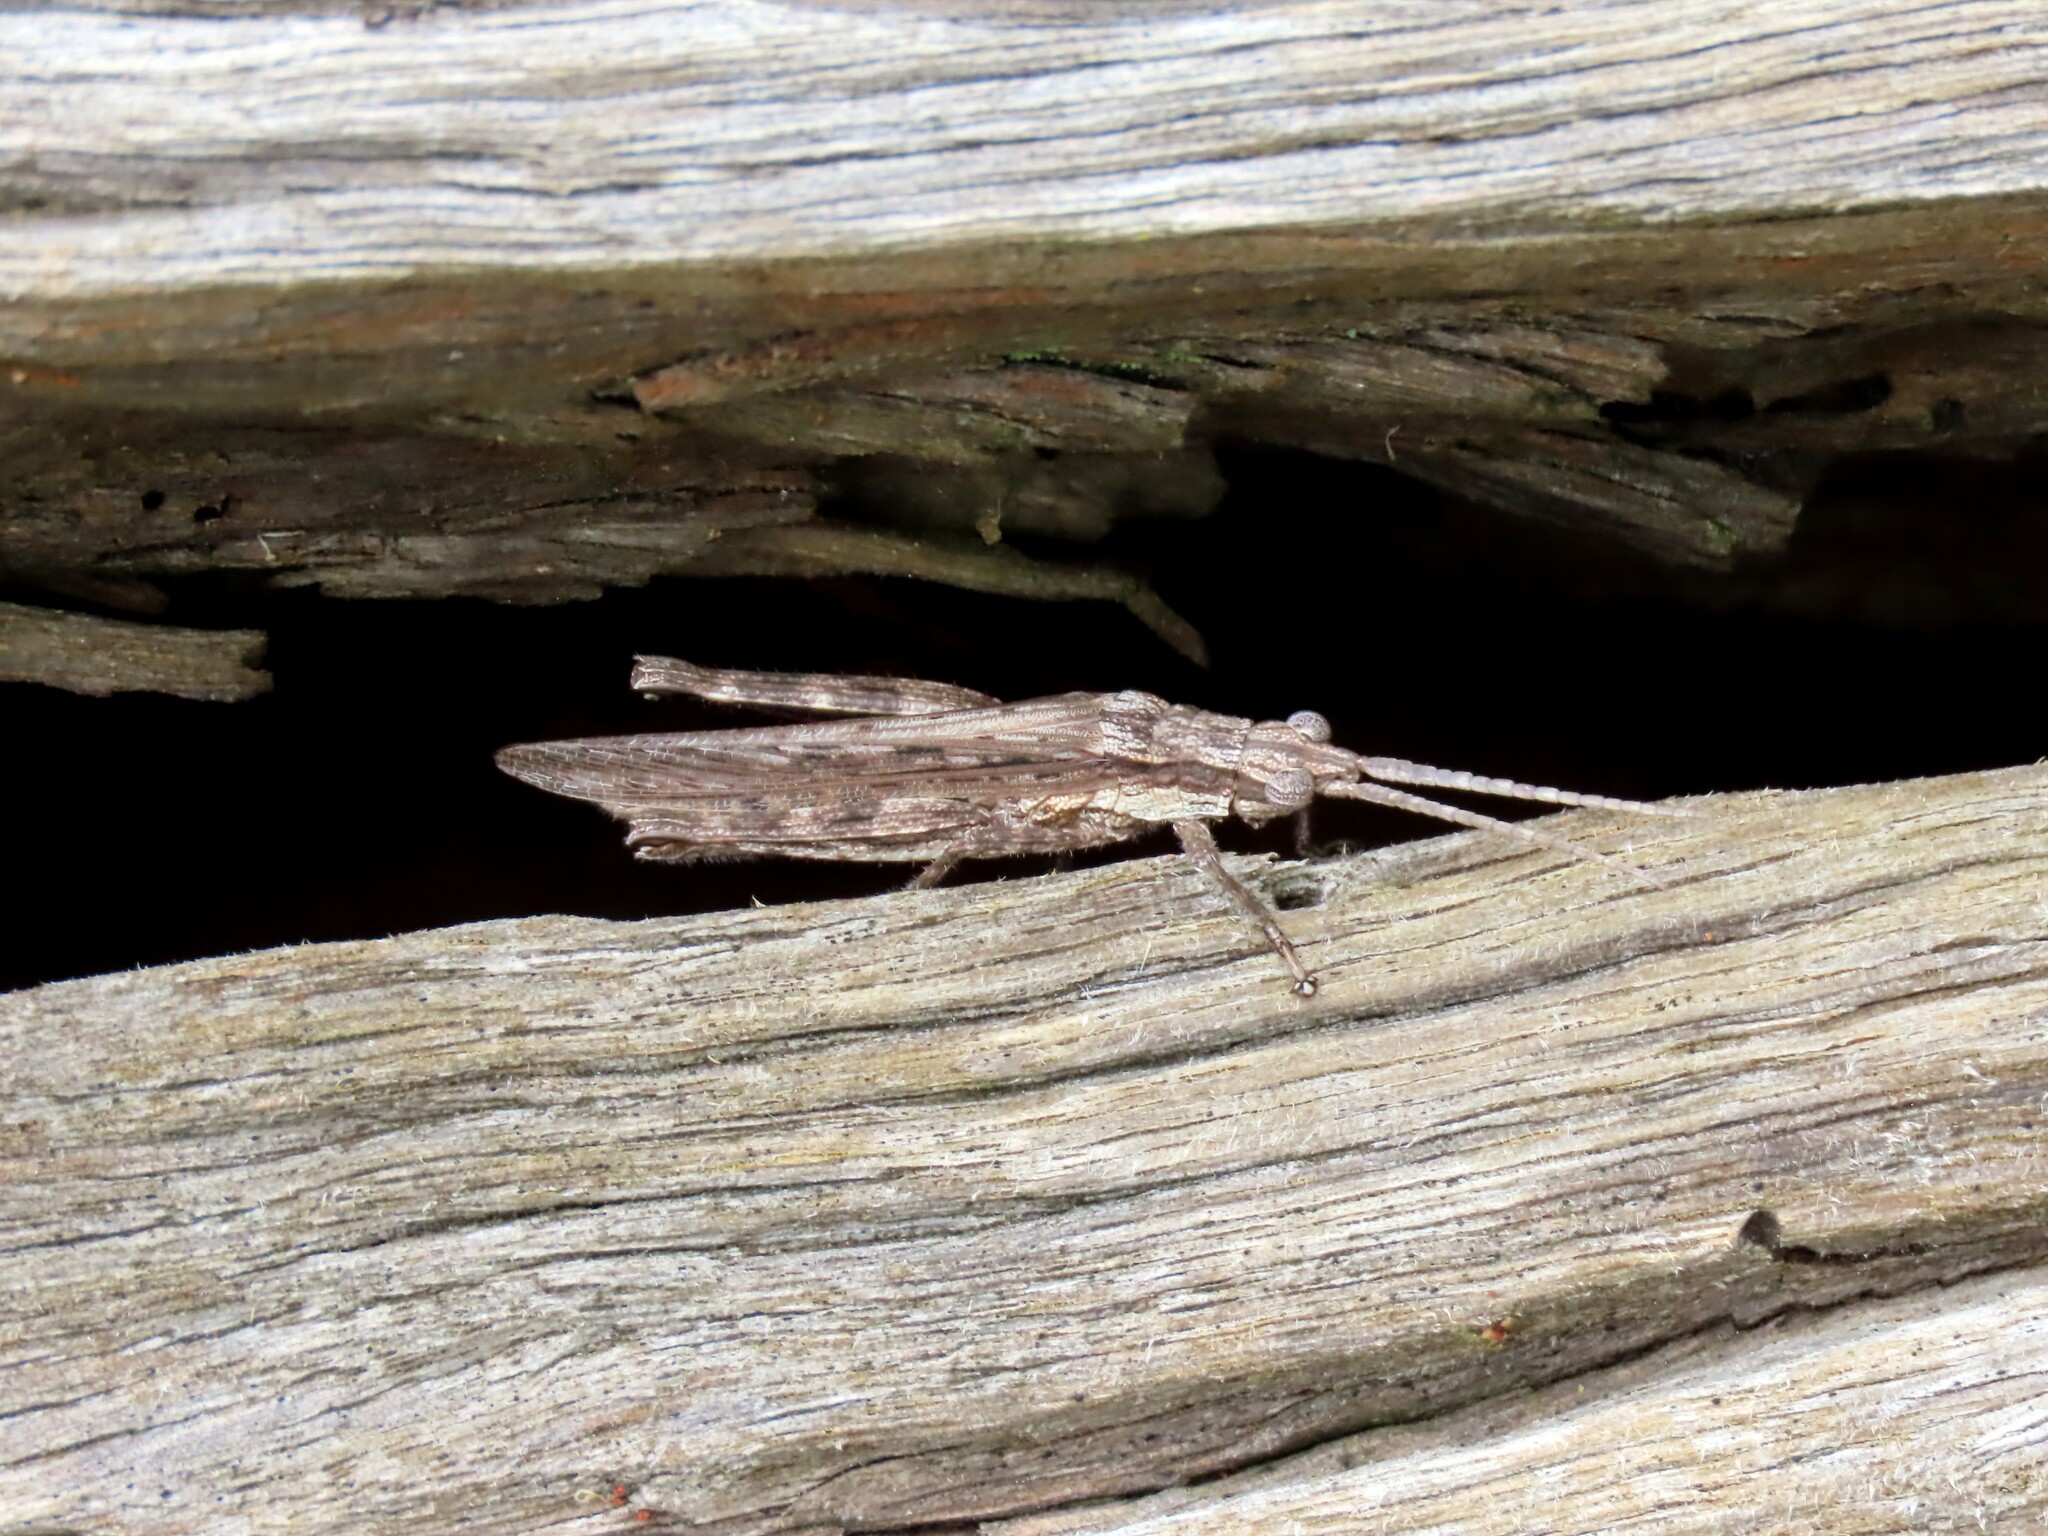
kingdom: Animalia
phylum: Arthropoda
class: Insecta
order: Orthoptera
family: Acrididae
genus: Coryphistes
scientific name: Coryphistes ruricola
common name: Bark-mimicking grasshopper
